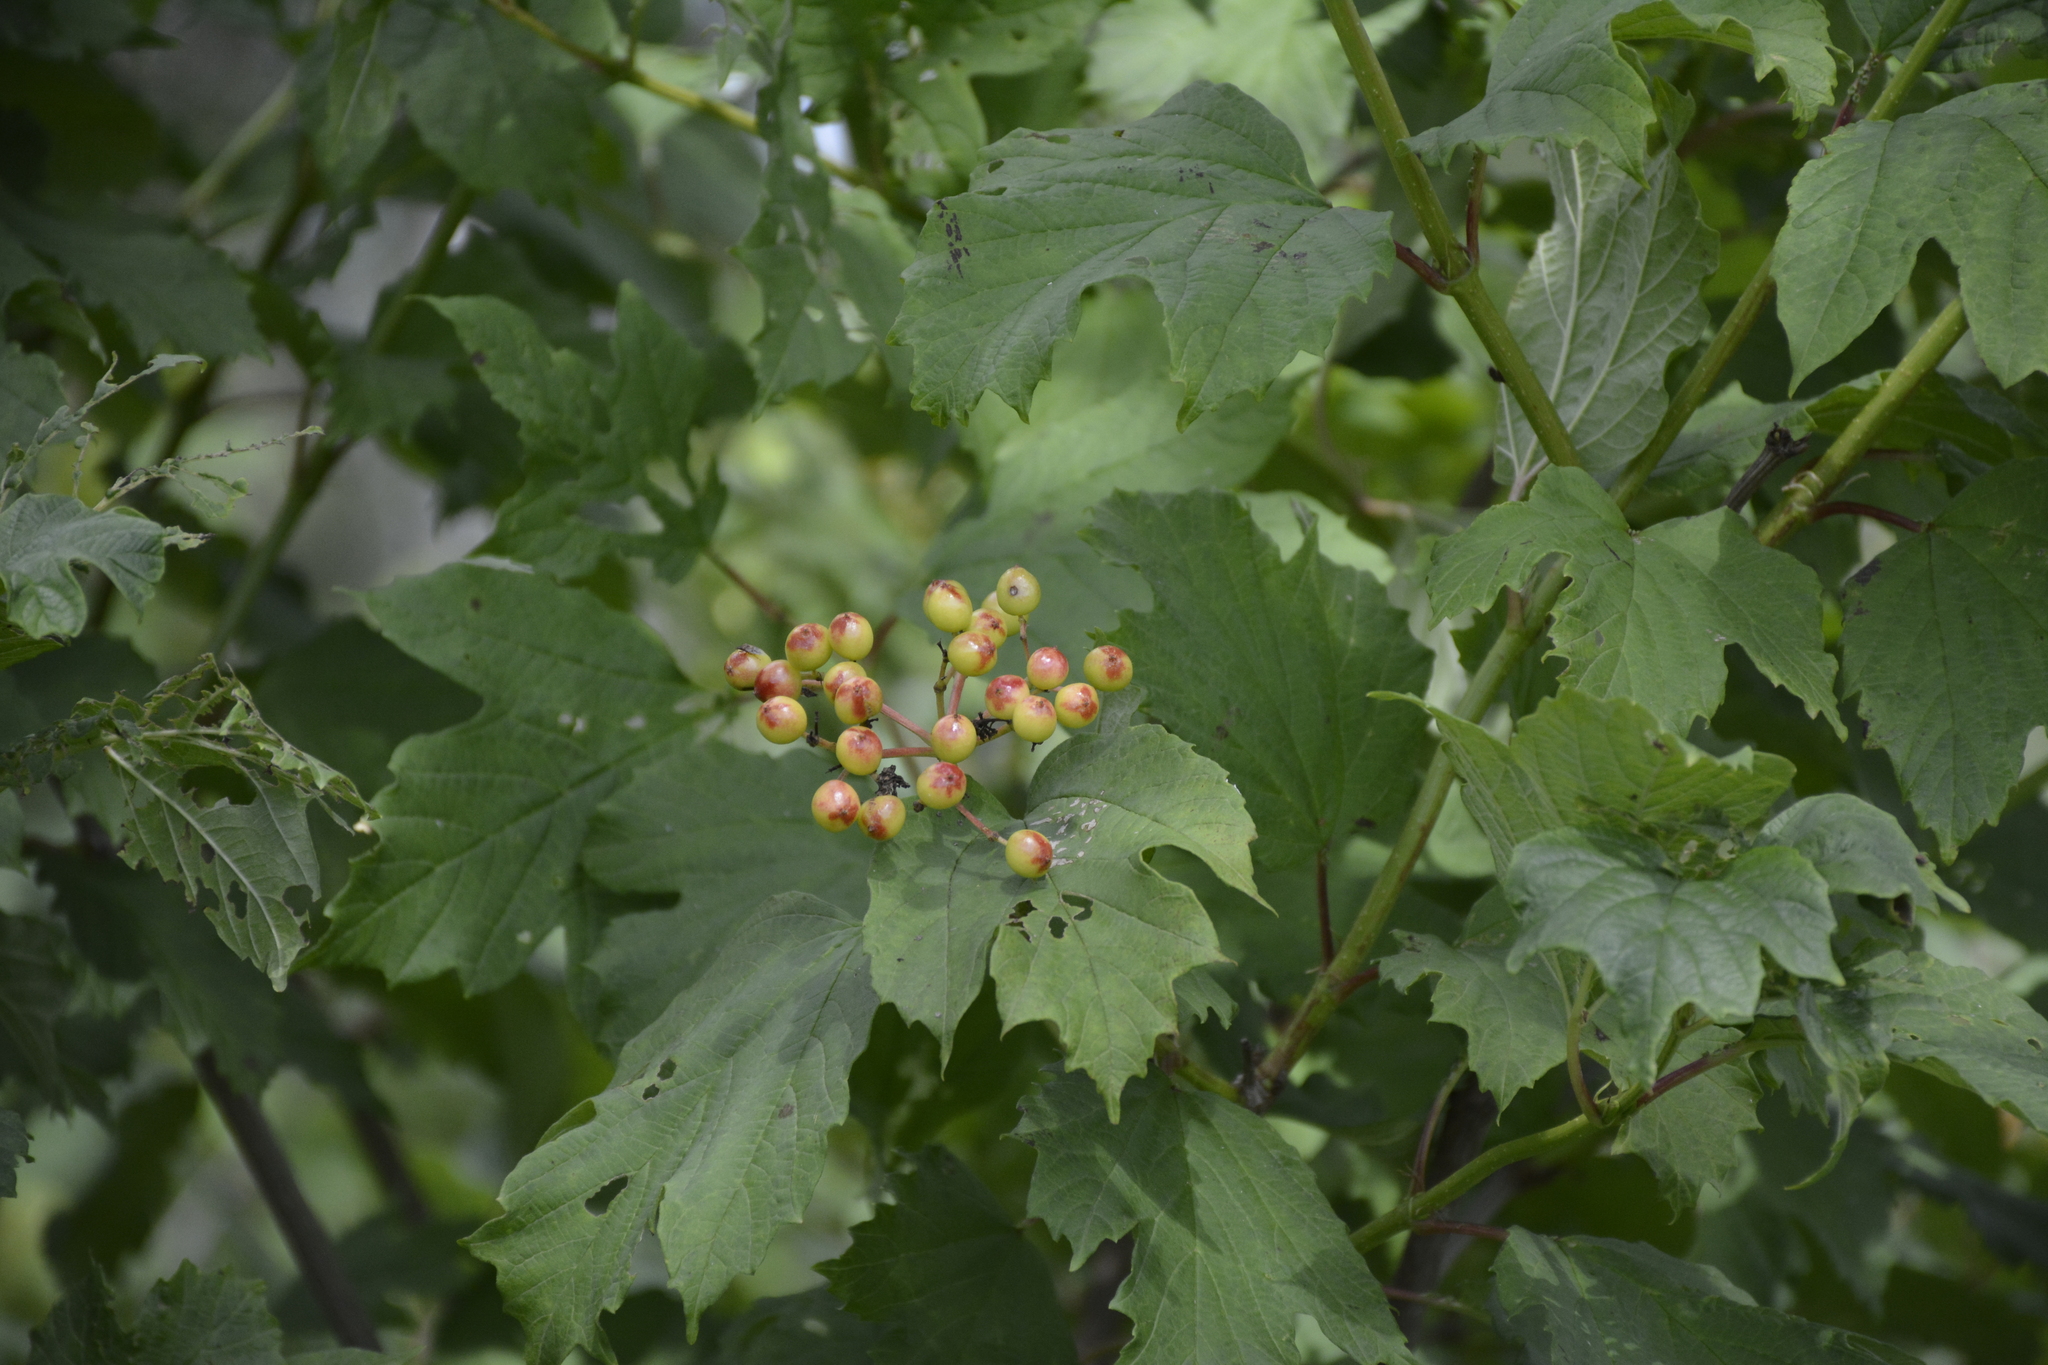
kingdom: Plantae
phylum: Tracheophyta
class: Magnoliopsida
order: Dipsacales
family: Viburnaceae
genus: Viburnum
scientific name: Viburnum opulus
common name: Guelder-rose
